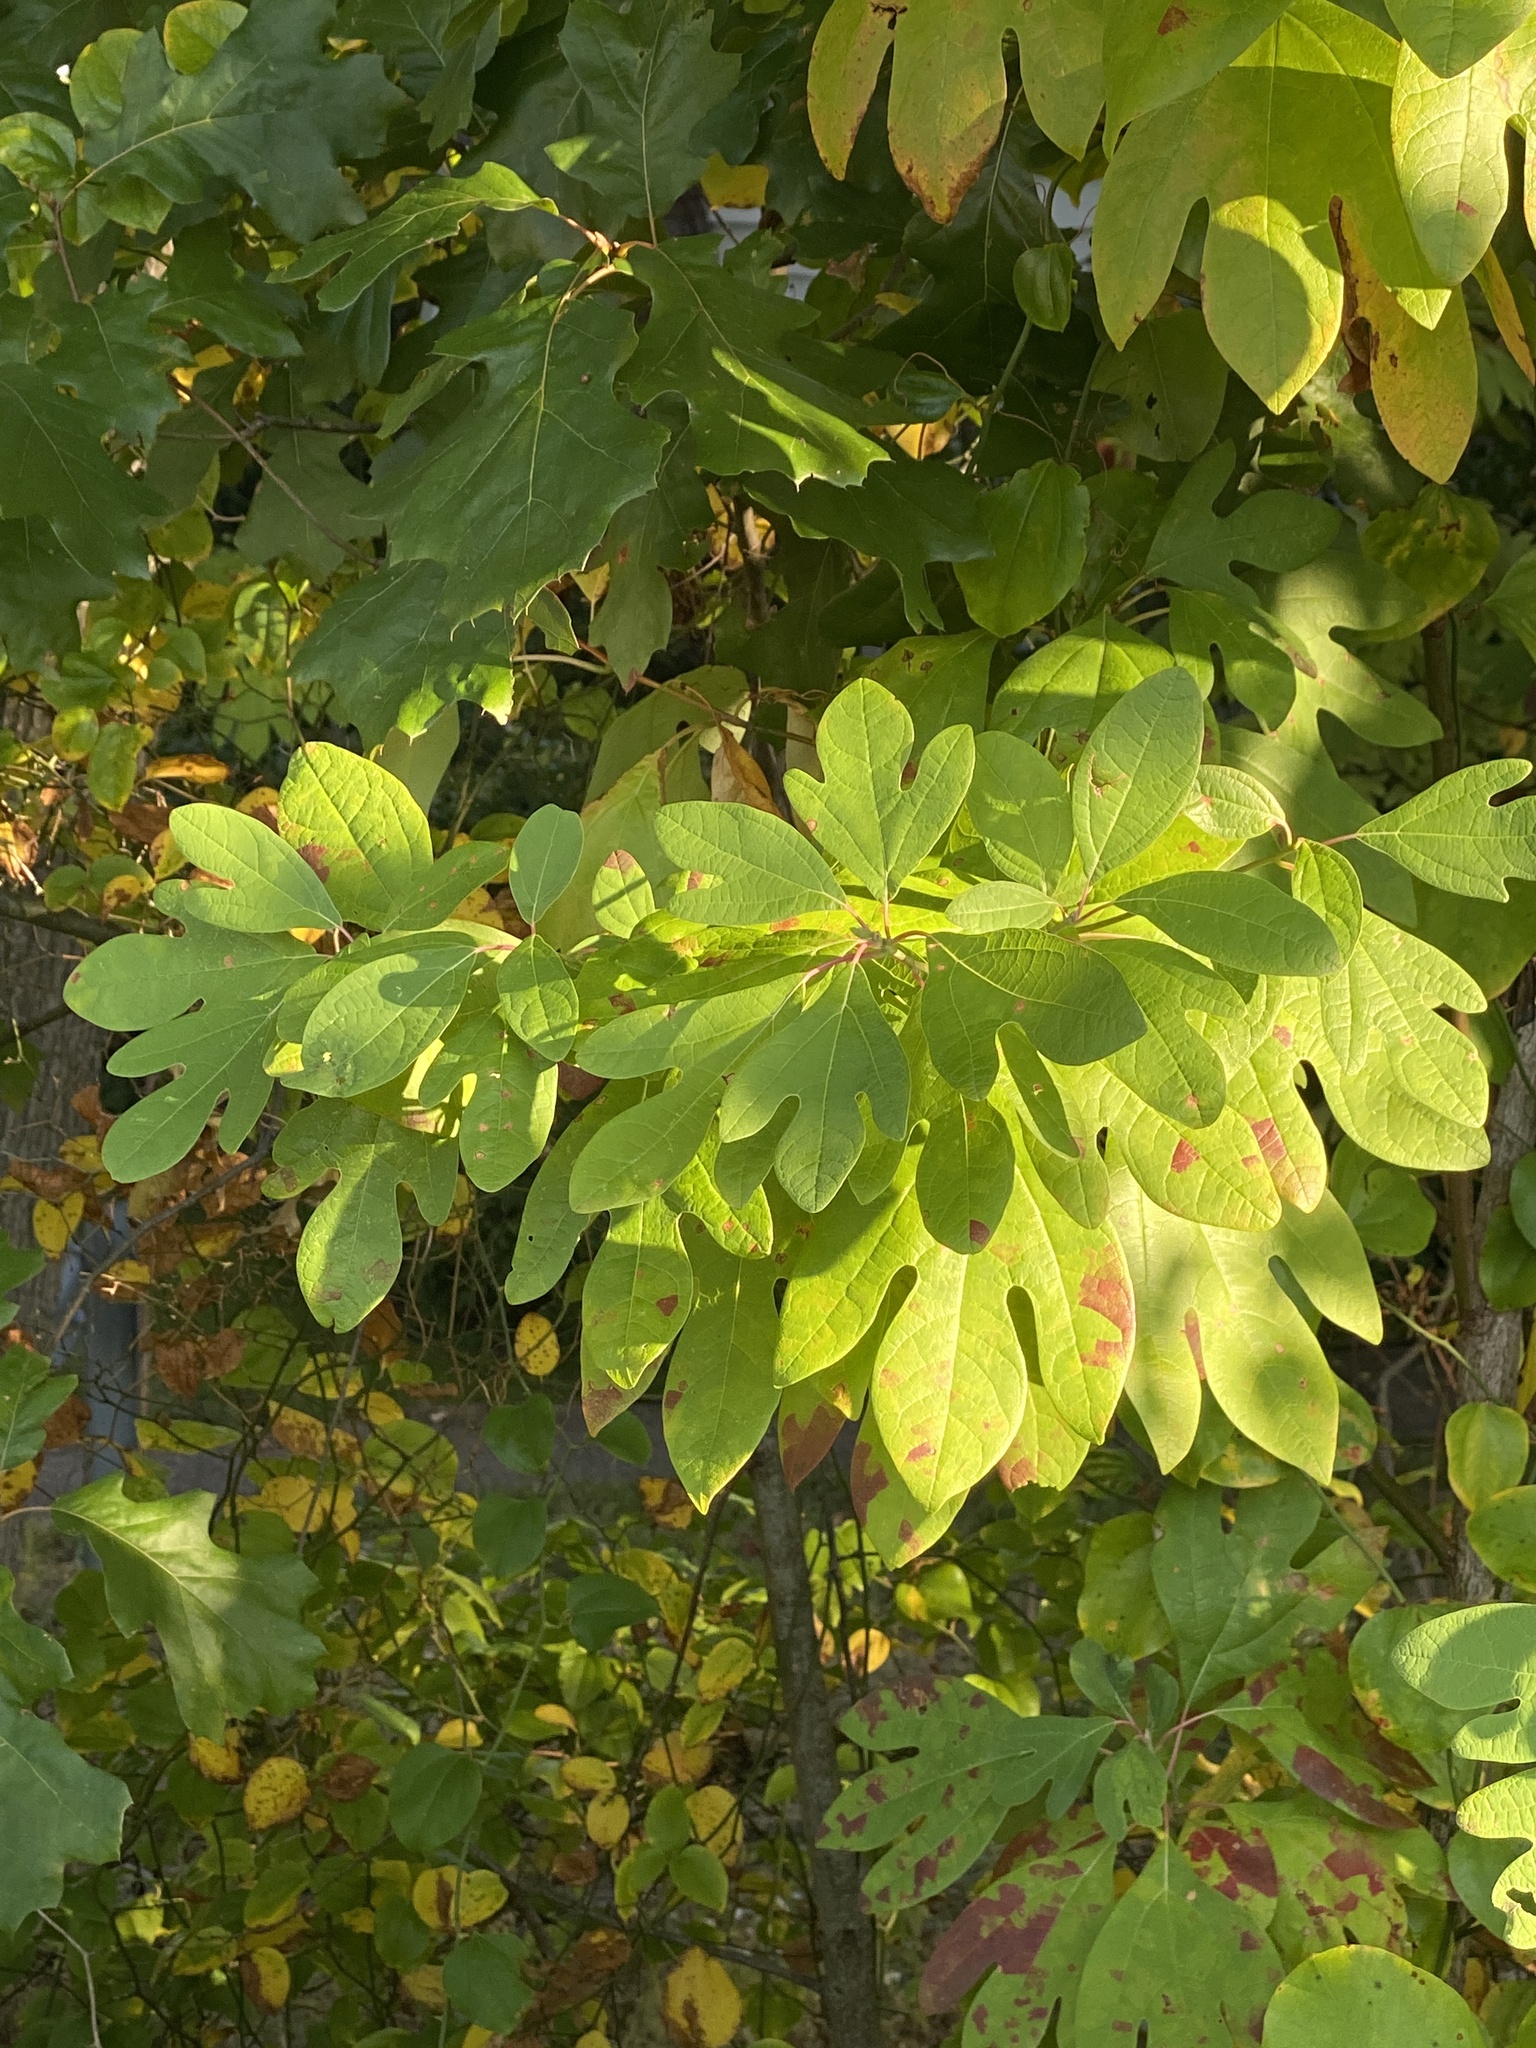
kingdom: Plantae
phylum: Tracheophyta
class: Magnoliopsida
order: Laurales
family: Lauraceae
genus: Sassafras
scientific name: Sassafras albidum
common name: Sassafras
